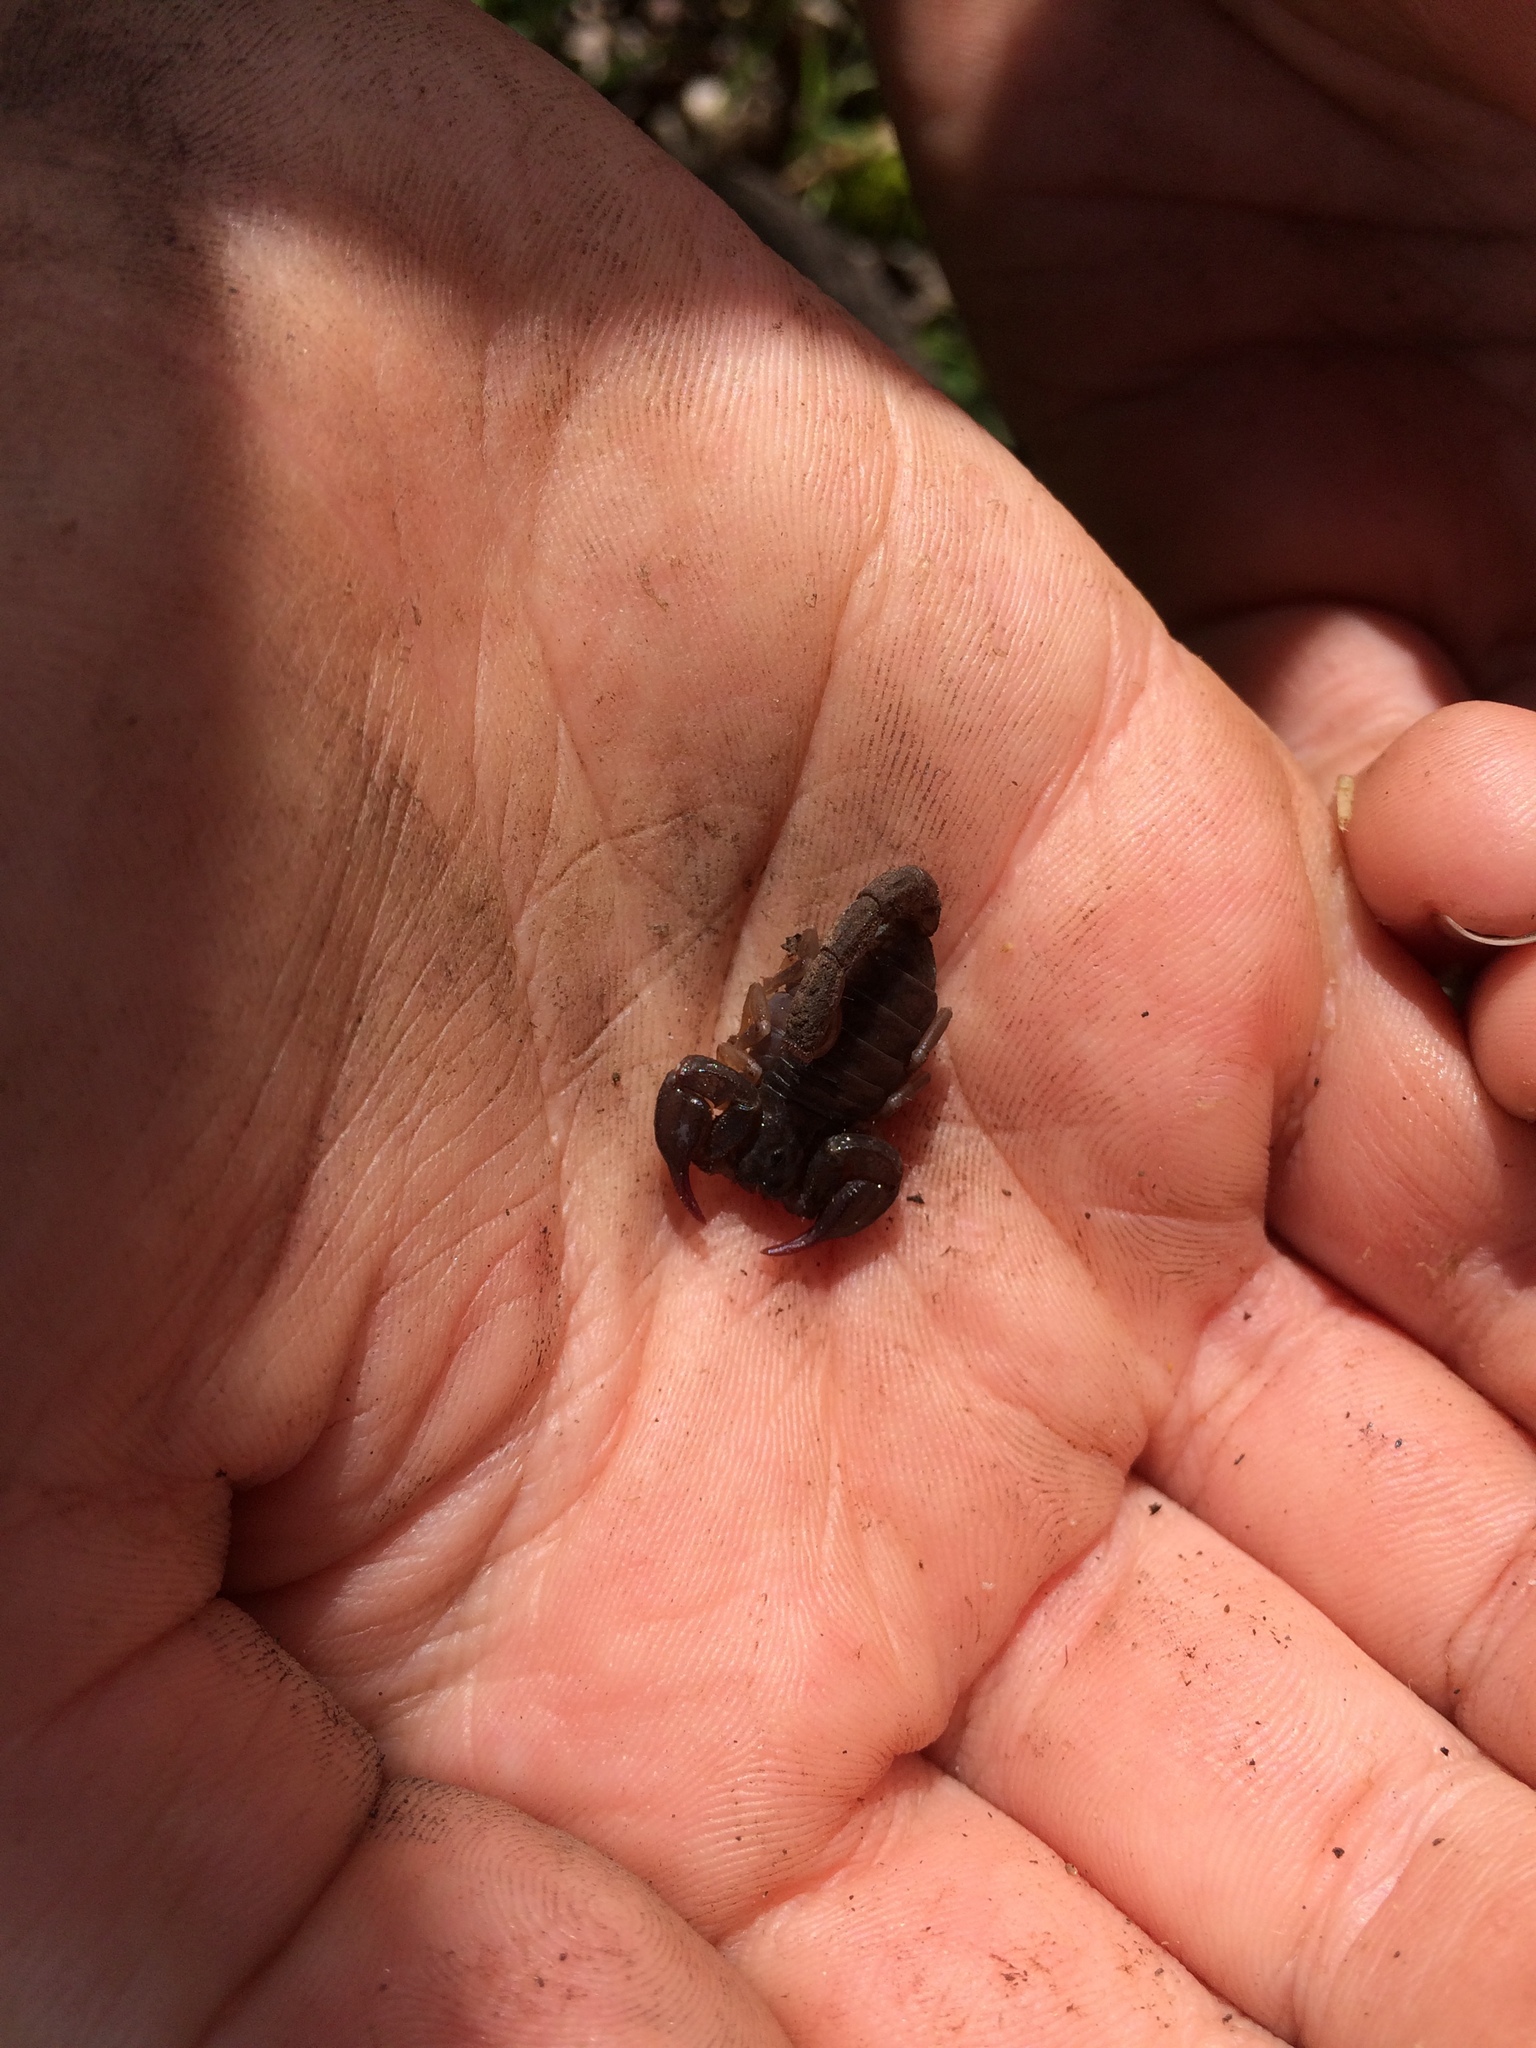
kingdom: Animalia
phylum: Arthropoda
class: Arachnida
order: Scorpiones
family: Chactidae
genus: Uroctonus
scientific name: Uroctonus mordax
